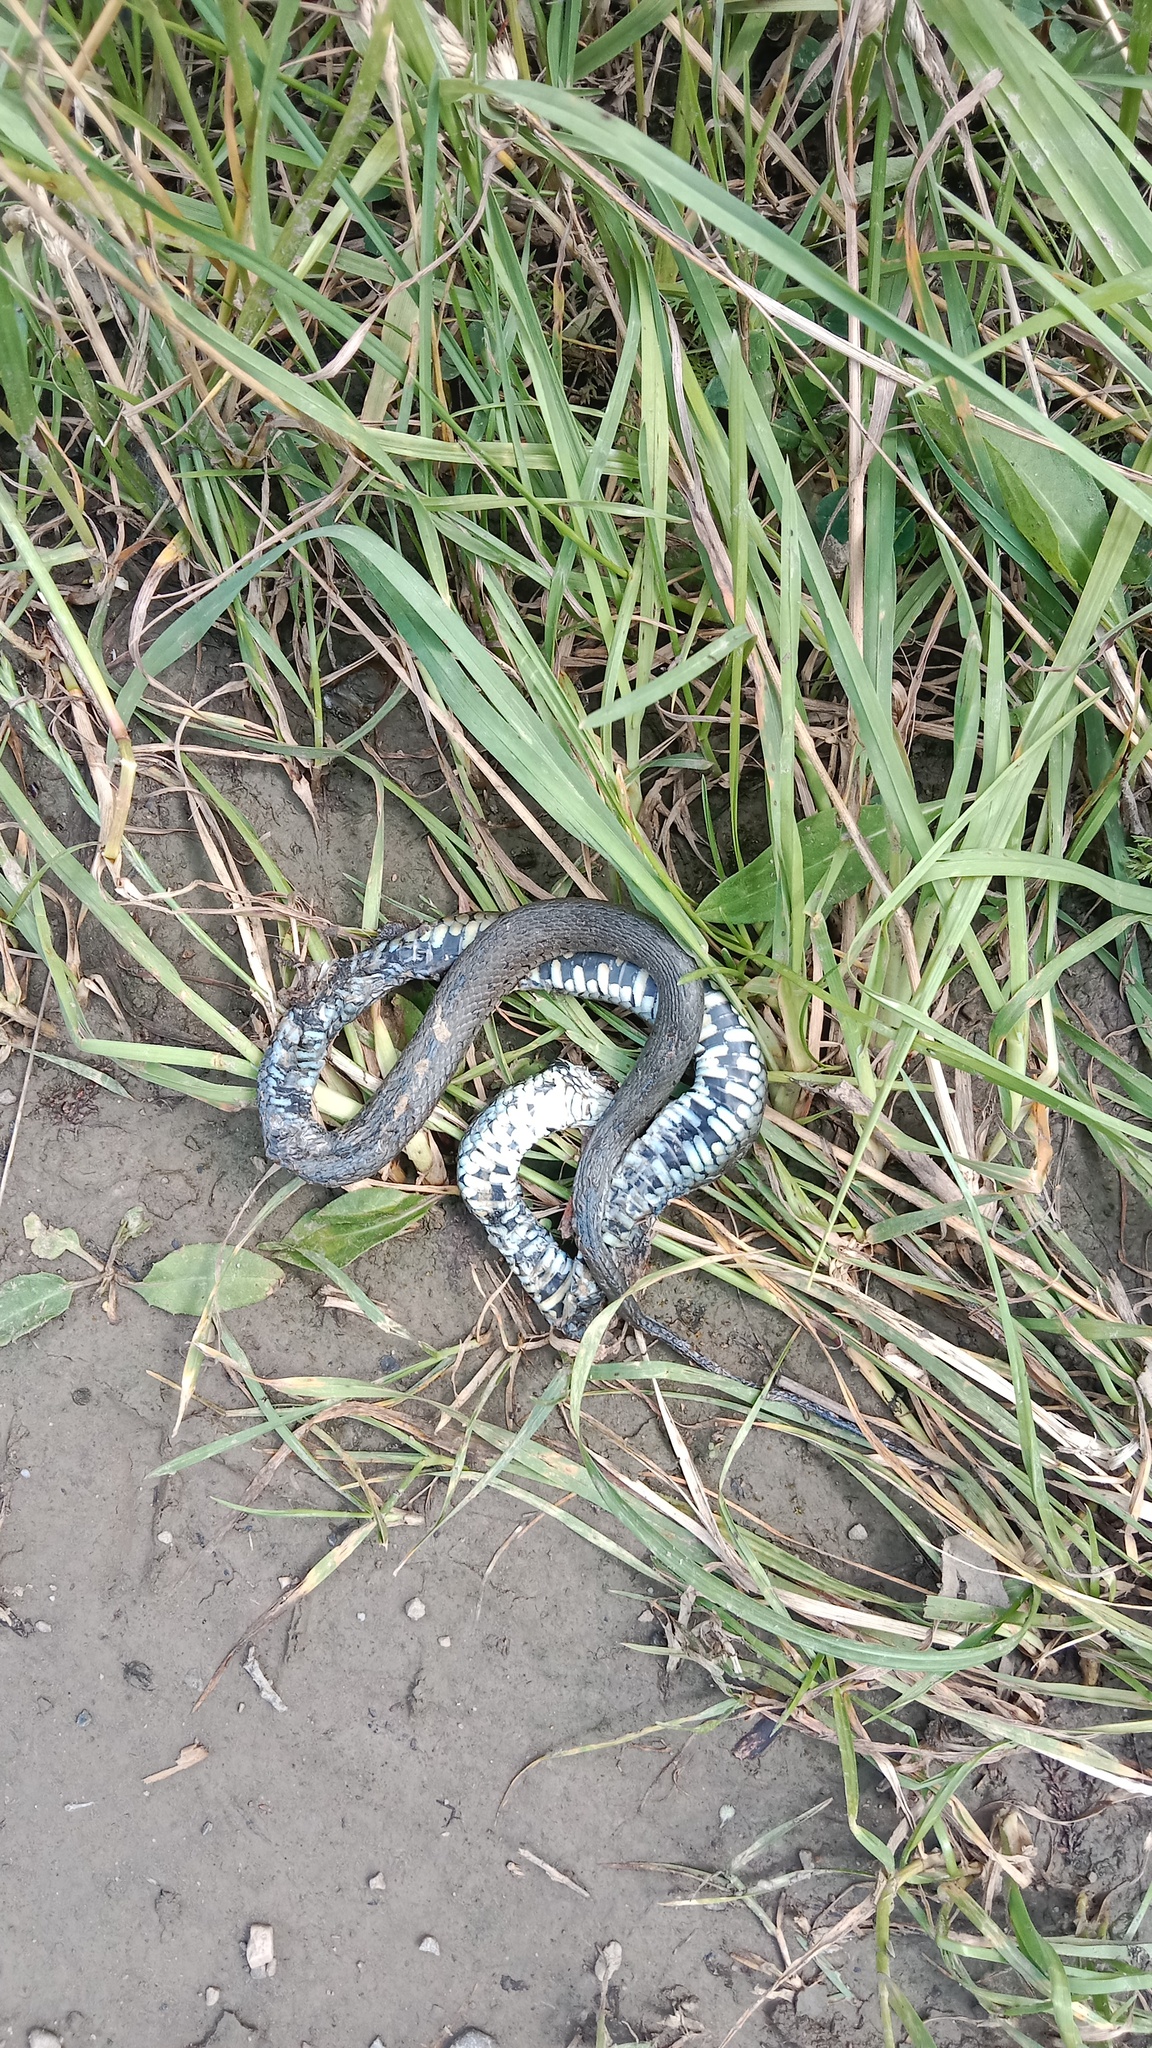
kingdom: Animalia
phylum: Chordata
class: Squamata
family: Colubridae
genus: Natrix
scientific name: Natrix natrix
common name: Grass snake
